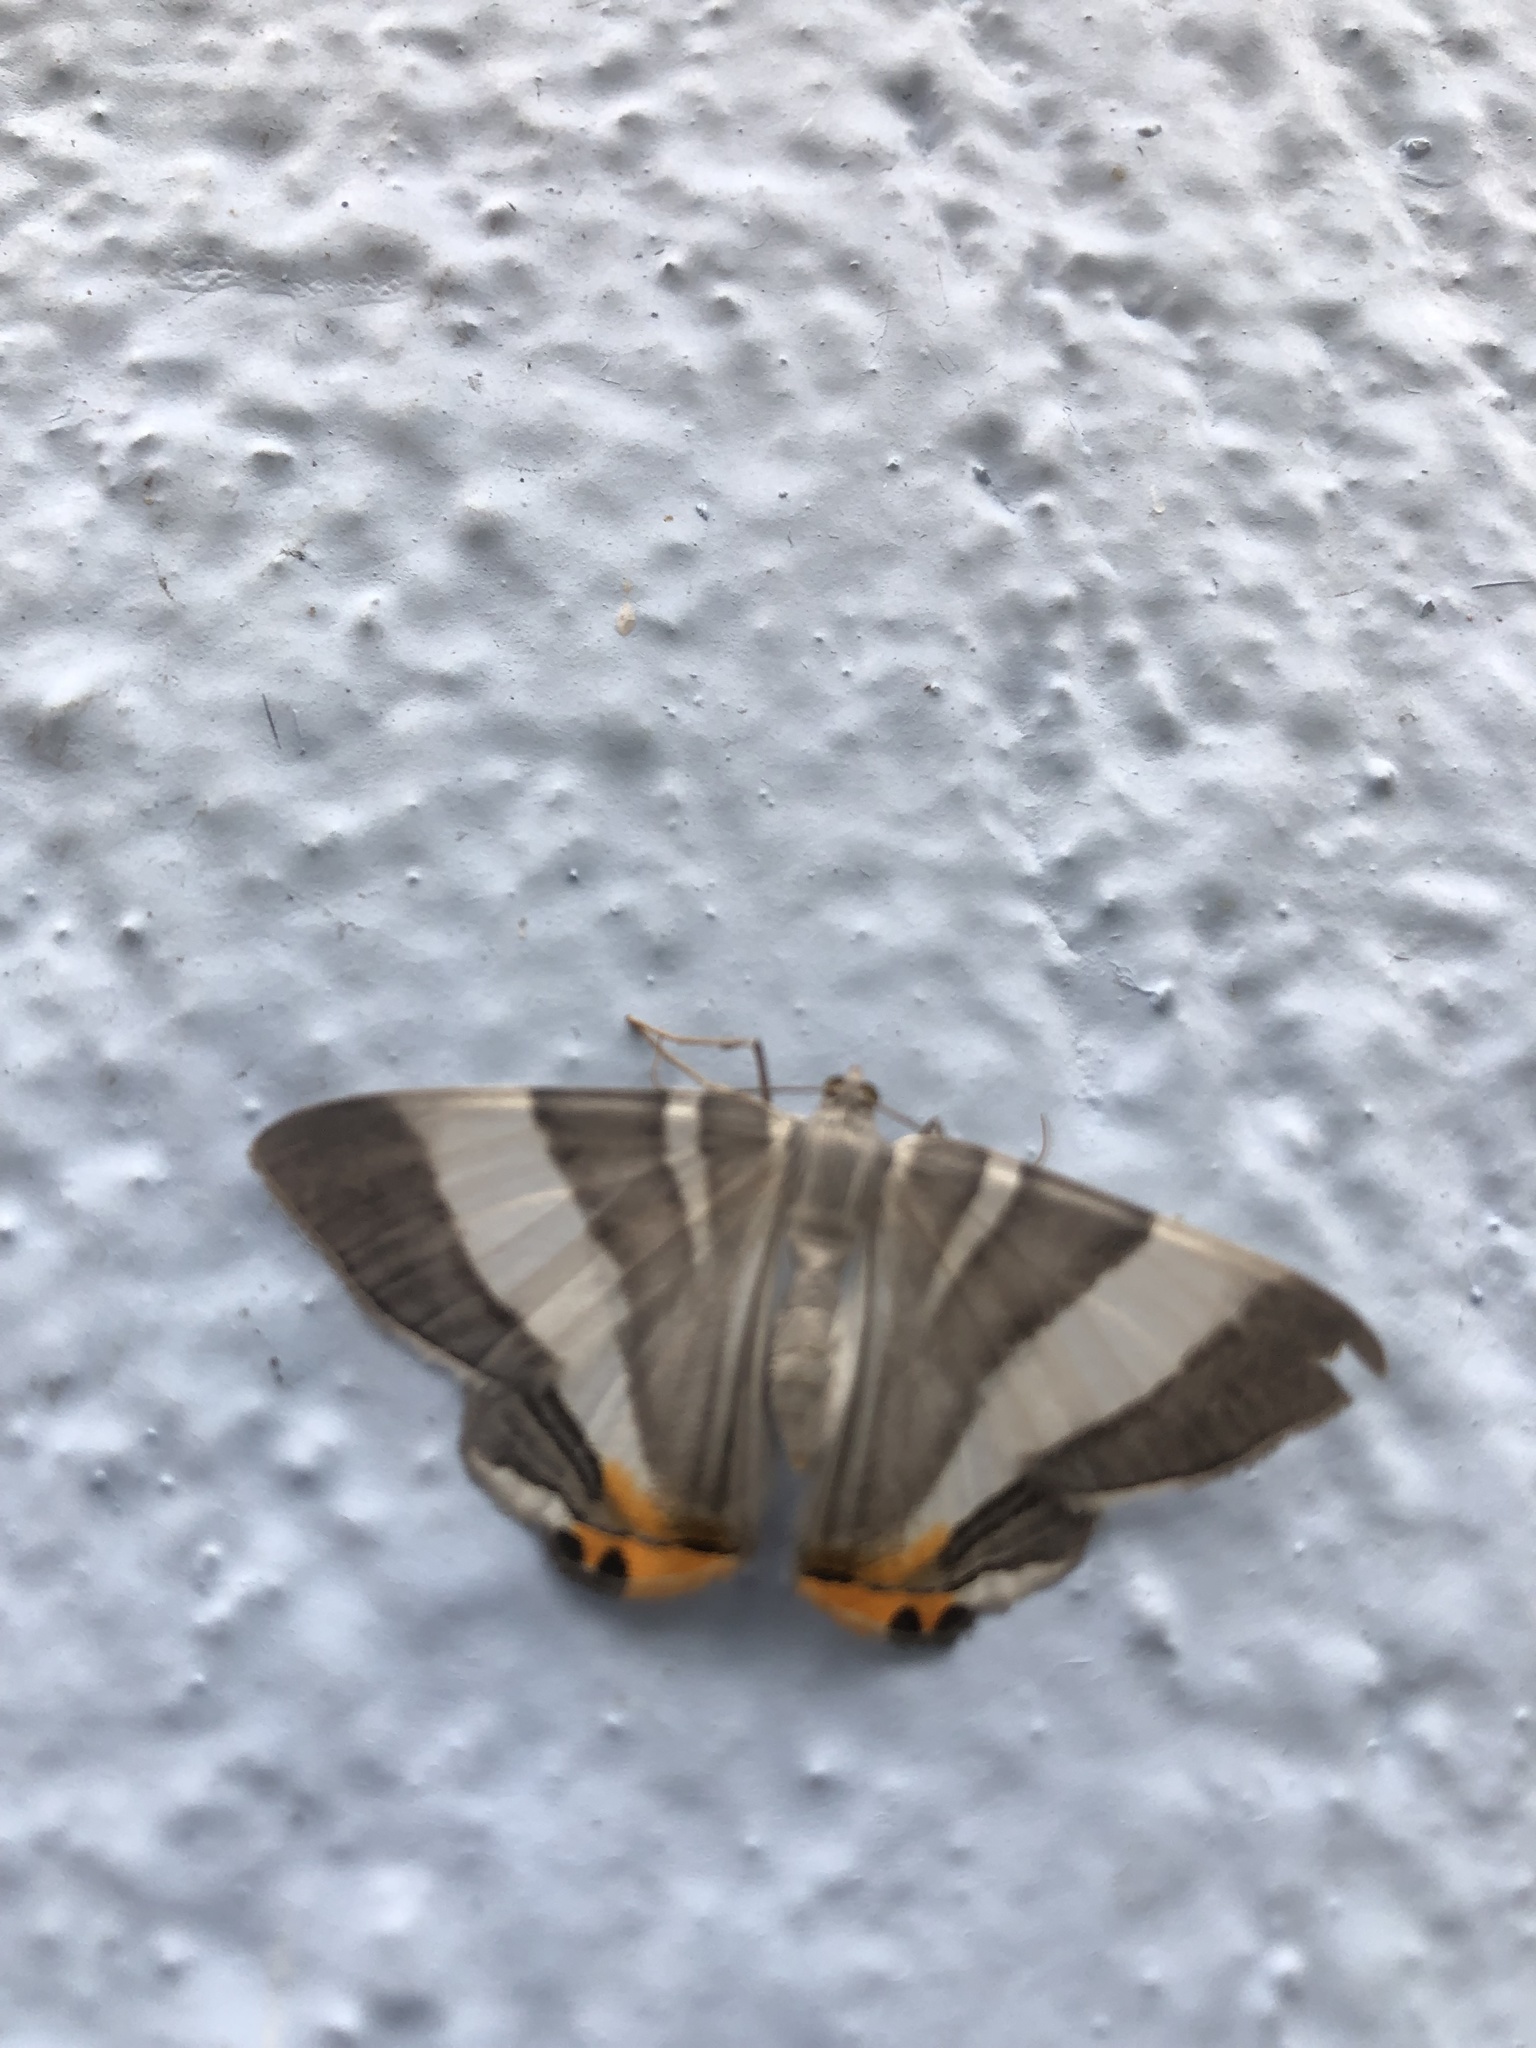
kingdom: Animalia
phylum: Arthropoda
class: Insecta
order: Lepidoptera
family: Geometridae
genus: Opisthoxia
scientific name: Opisthoxia miletia
